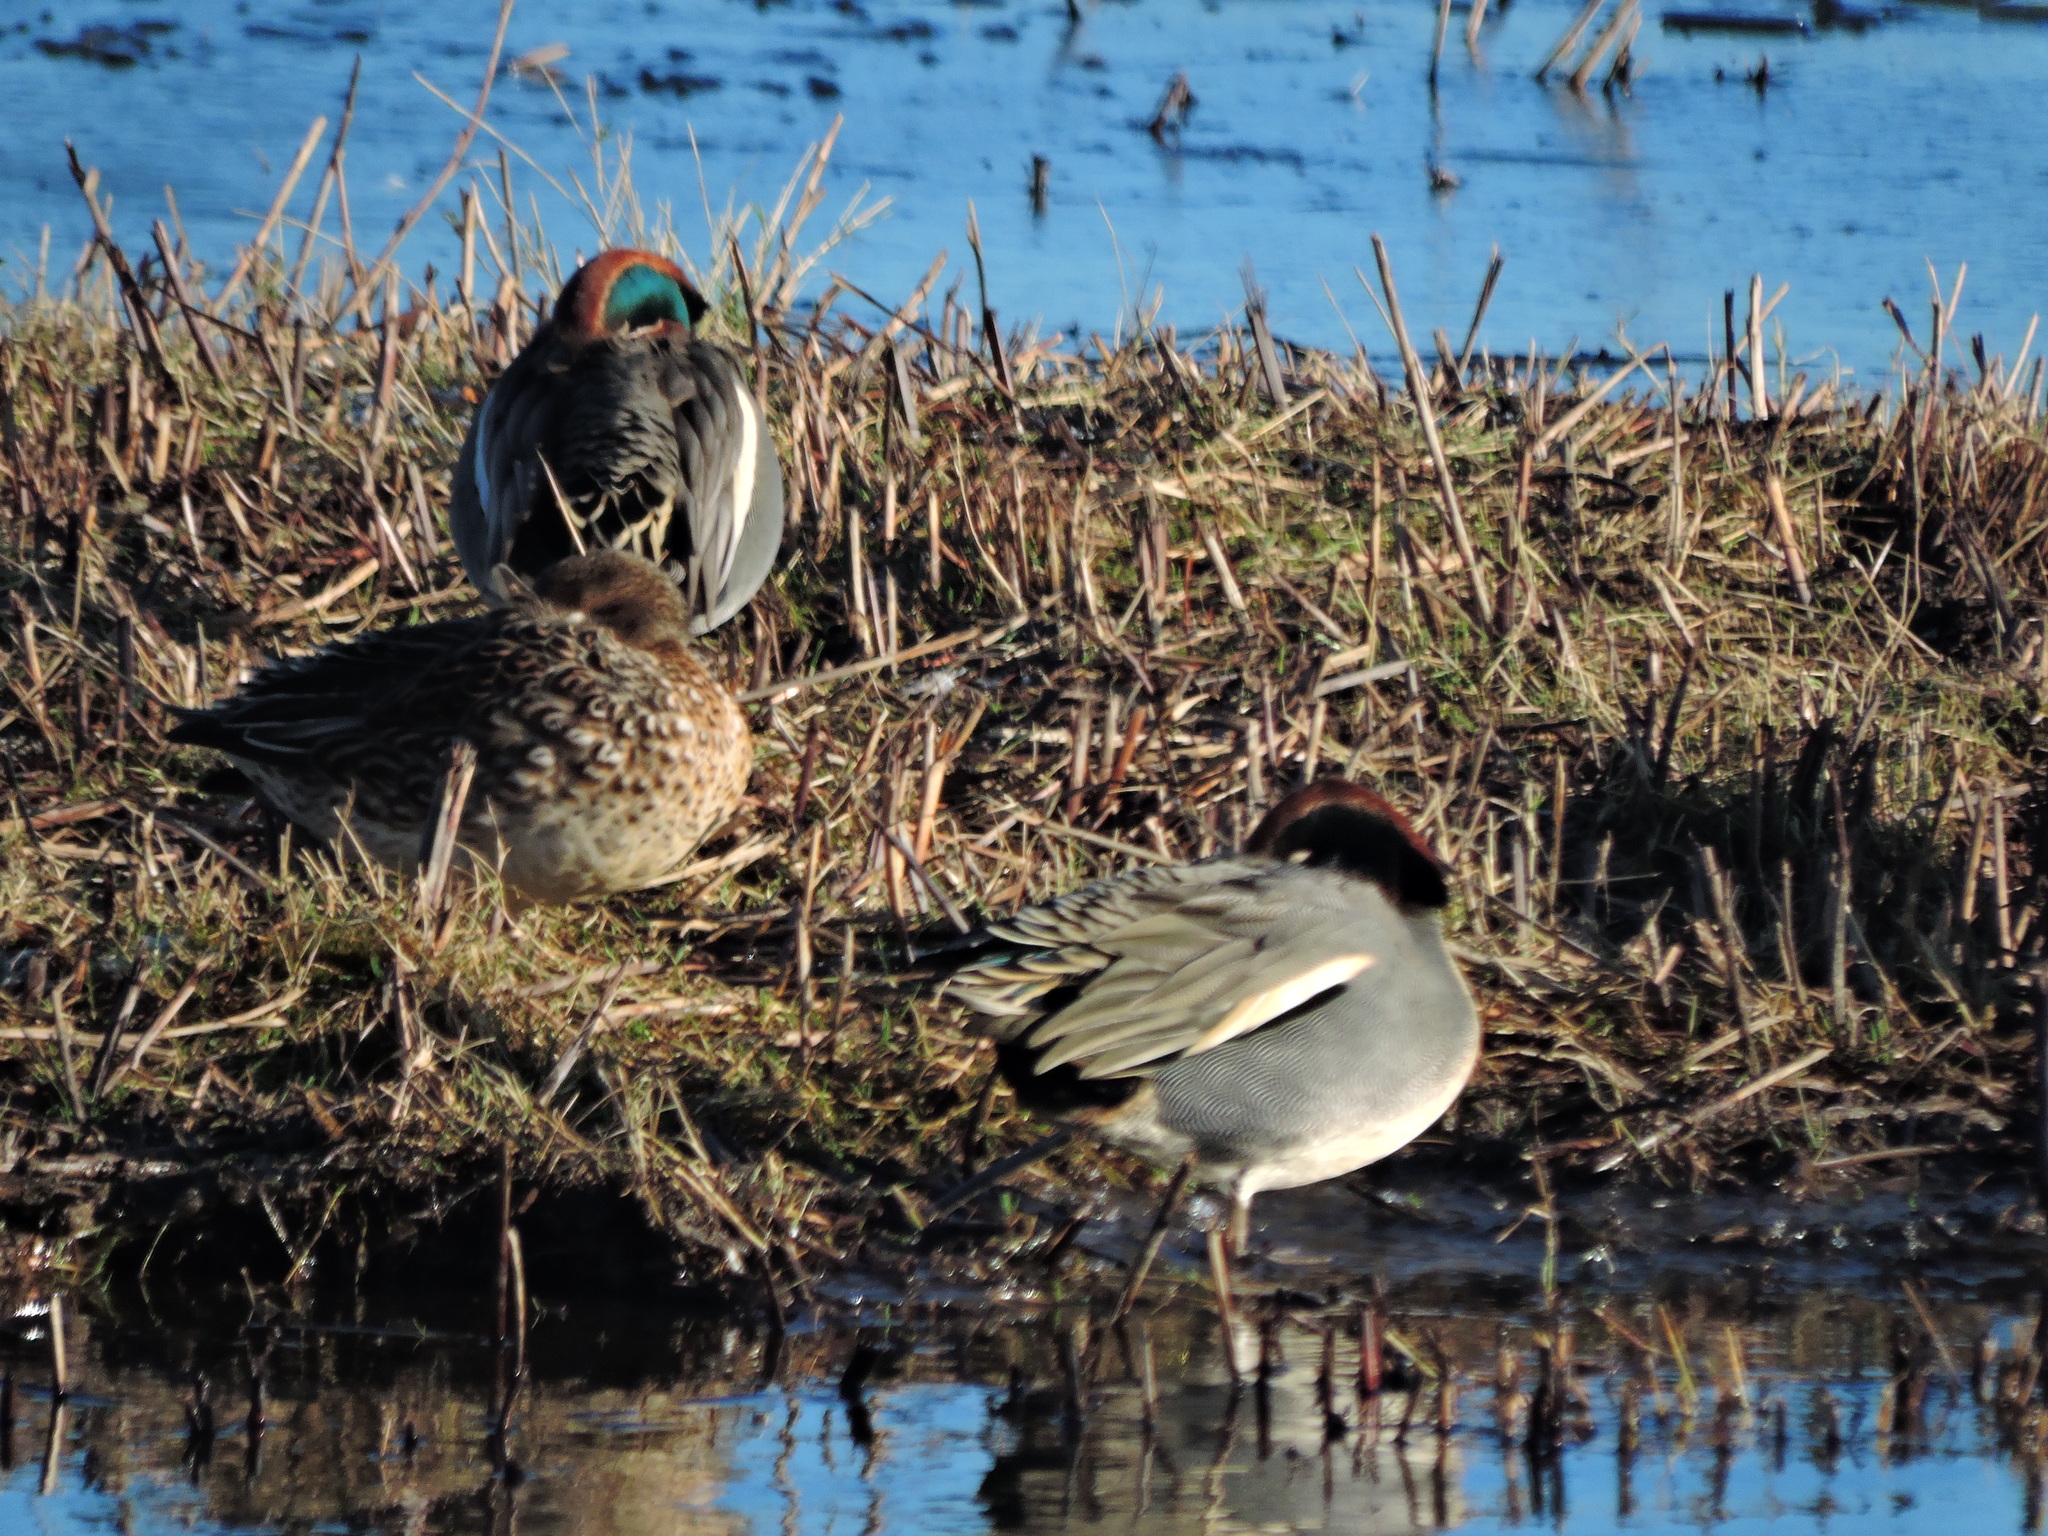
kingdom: Animalia
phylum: Chordata
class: Aves
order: Anseriformes
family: Anatidae
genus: Anas
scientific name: Anas crecca
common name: Eurasian teal
